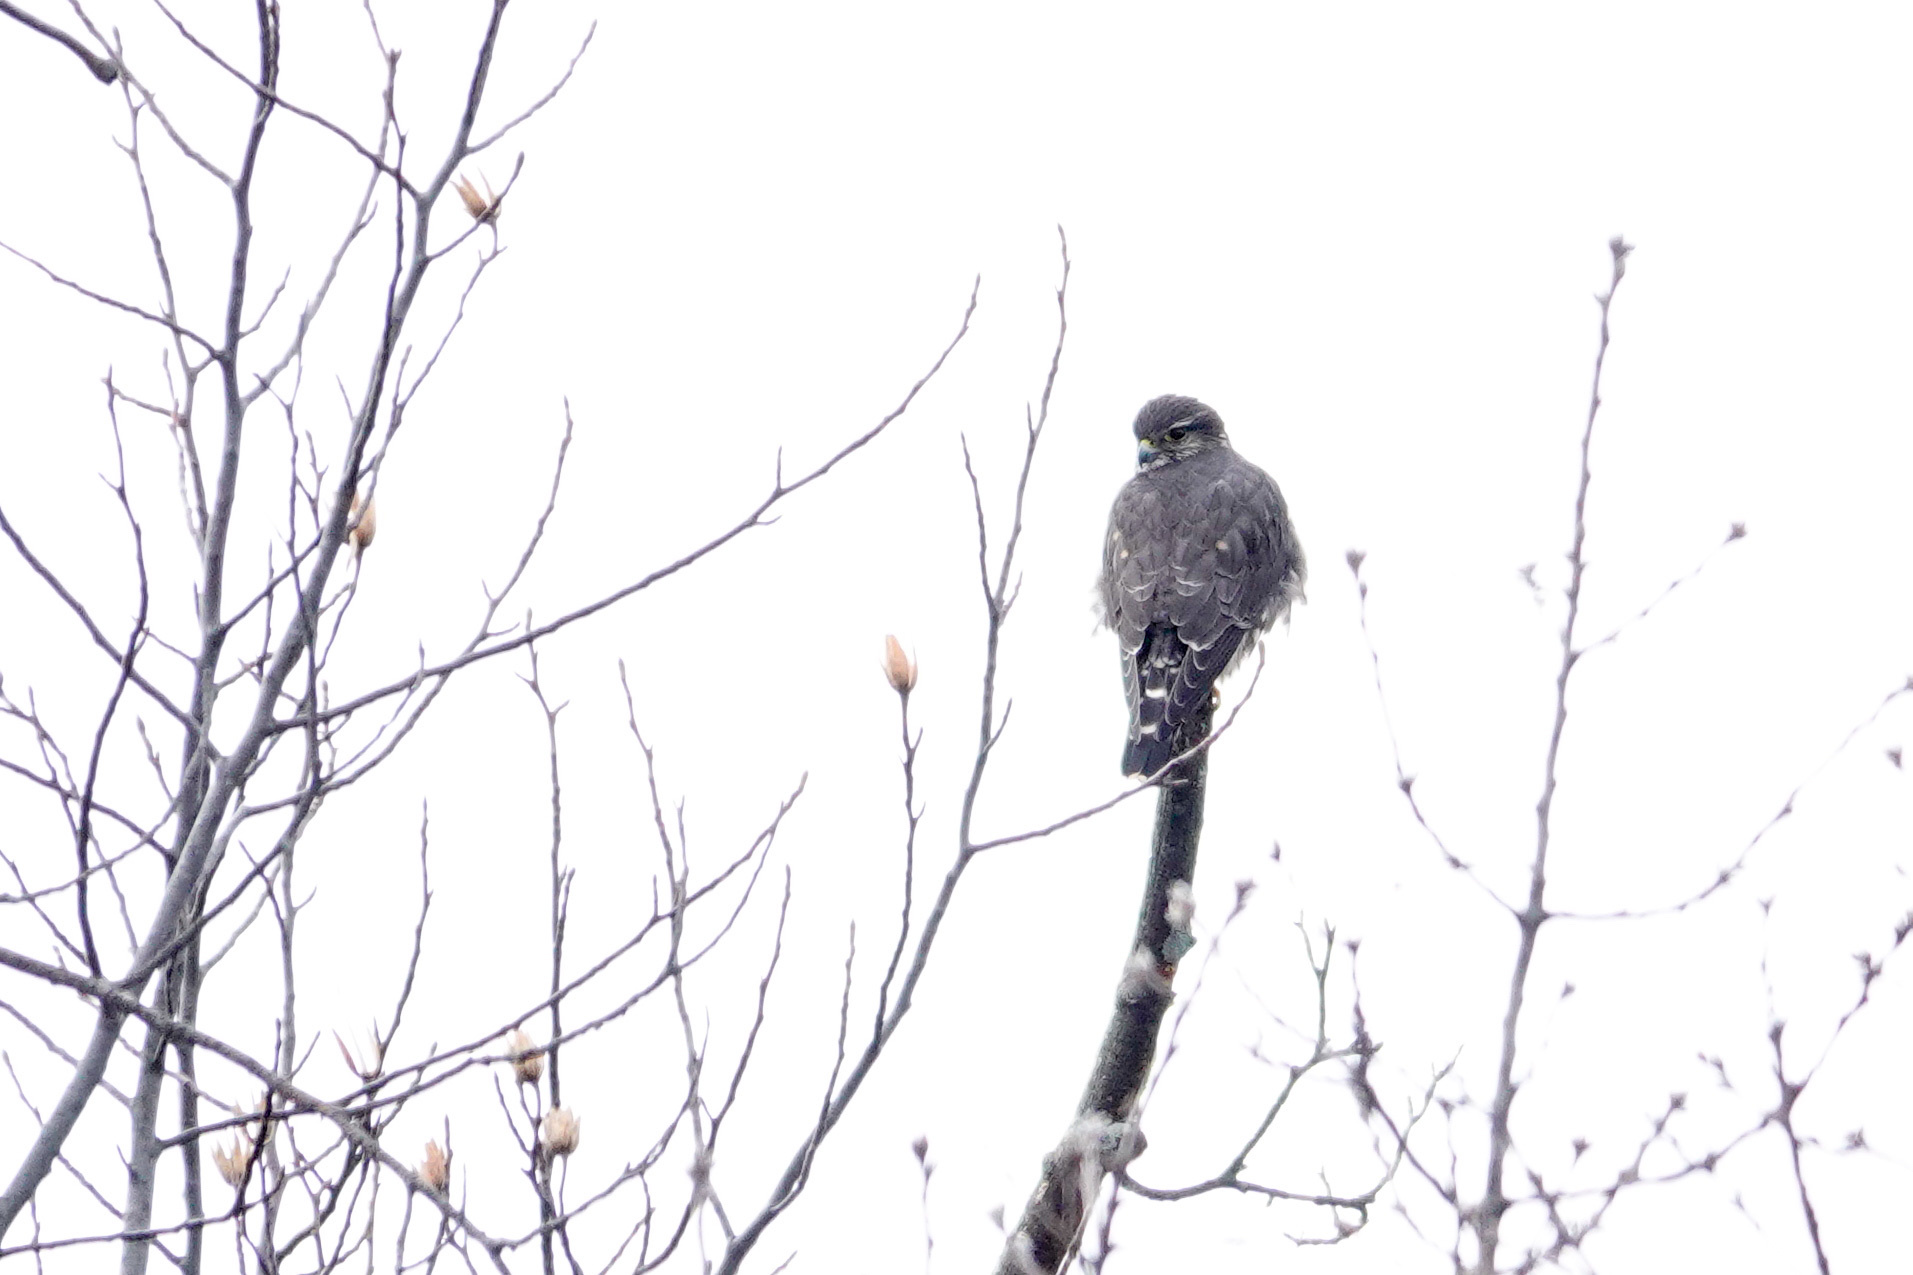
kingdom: Animalia
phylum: Chordata
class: Aves
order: Falconiformes
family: Falconidae
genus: Falco
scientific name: Falco columbarius
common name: Merlin
